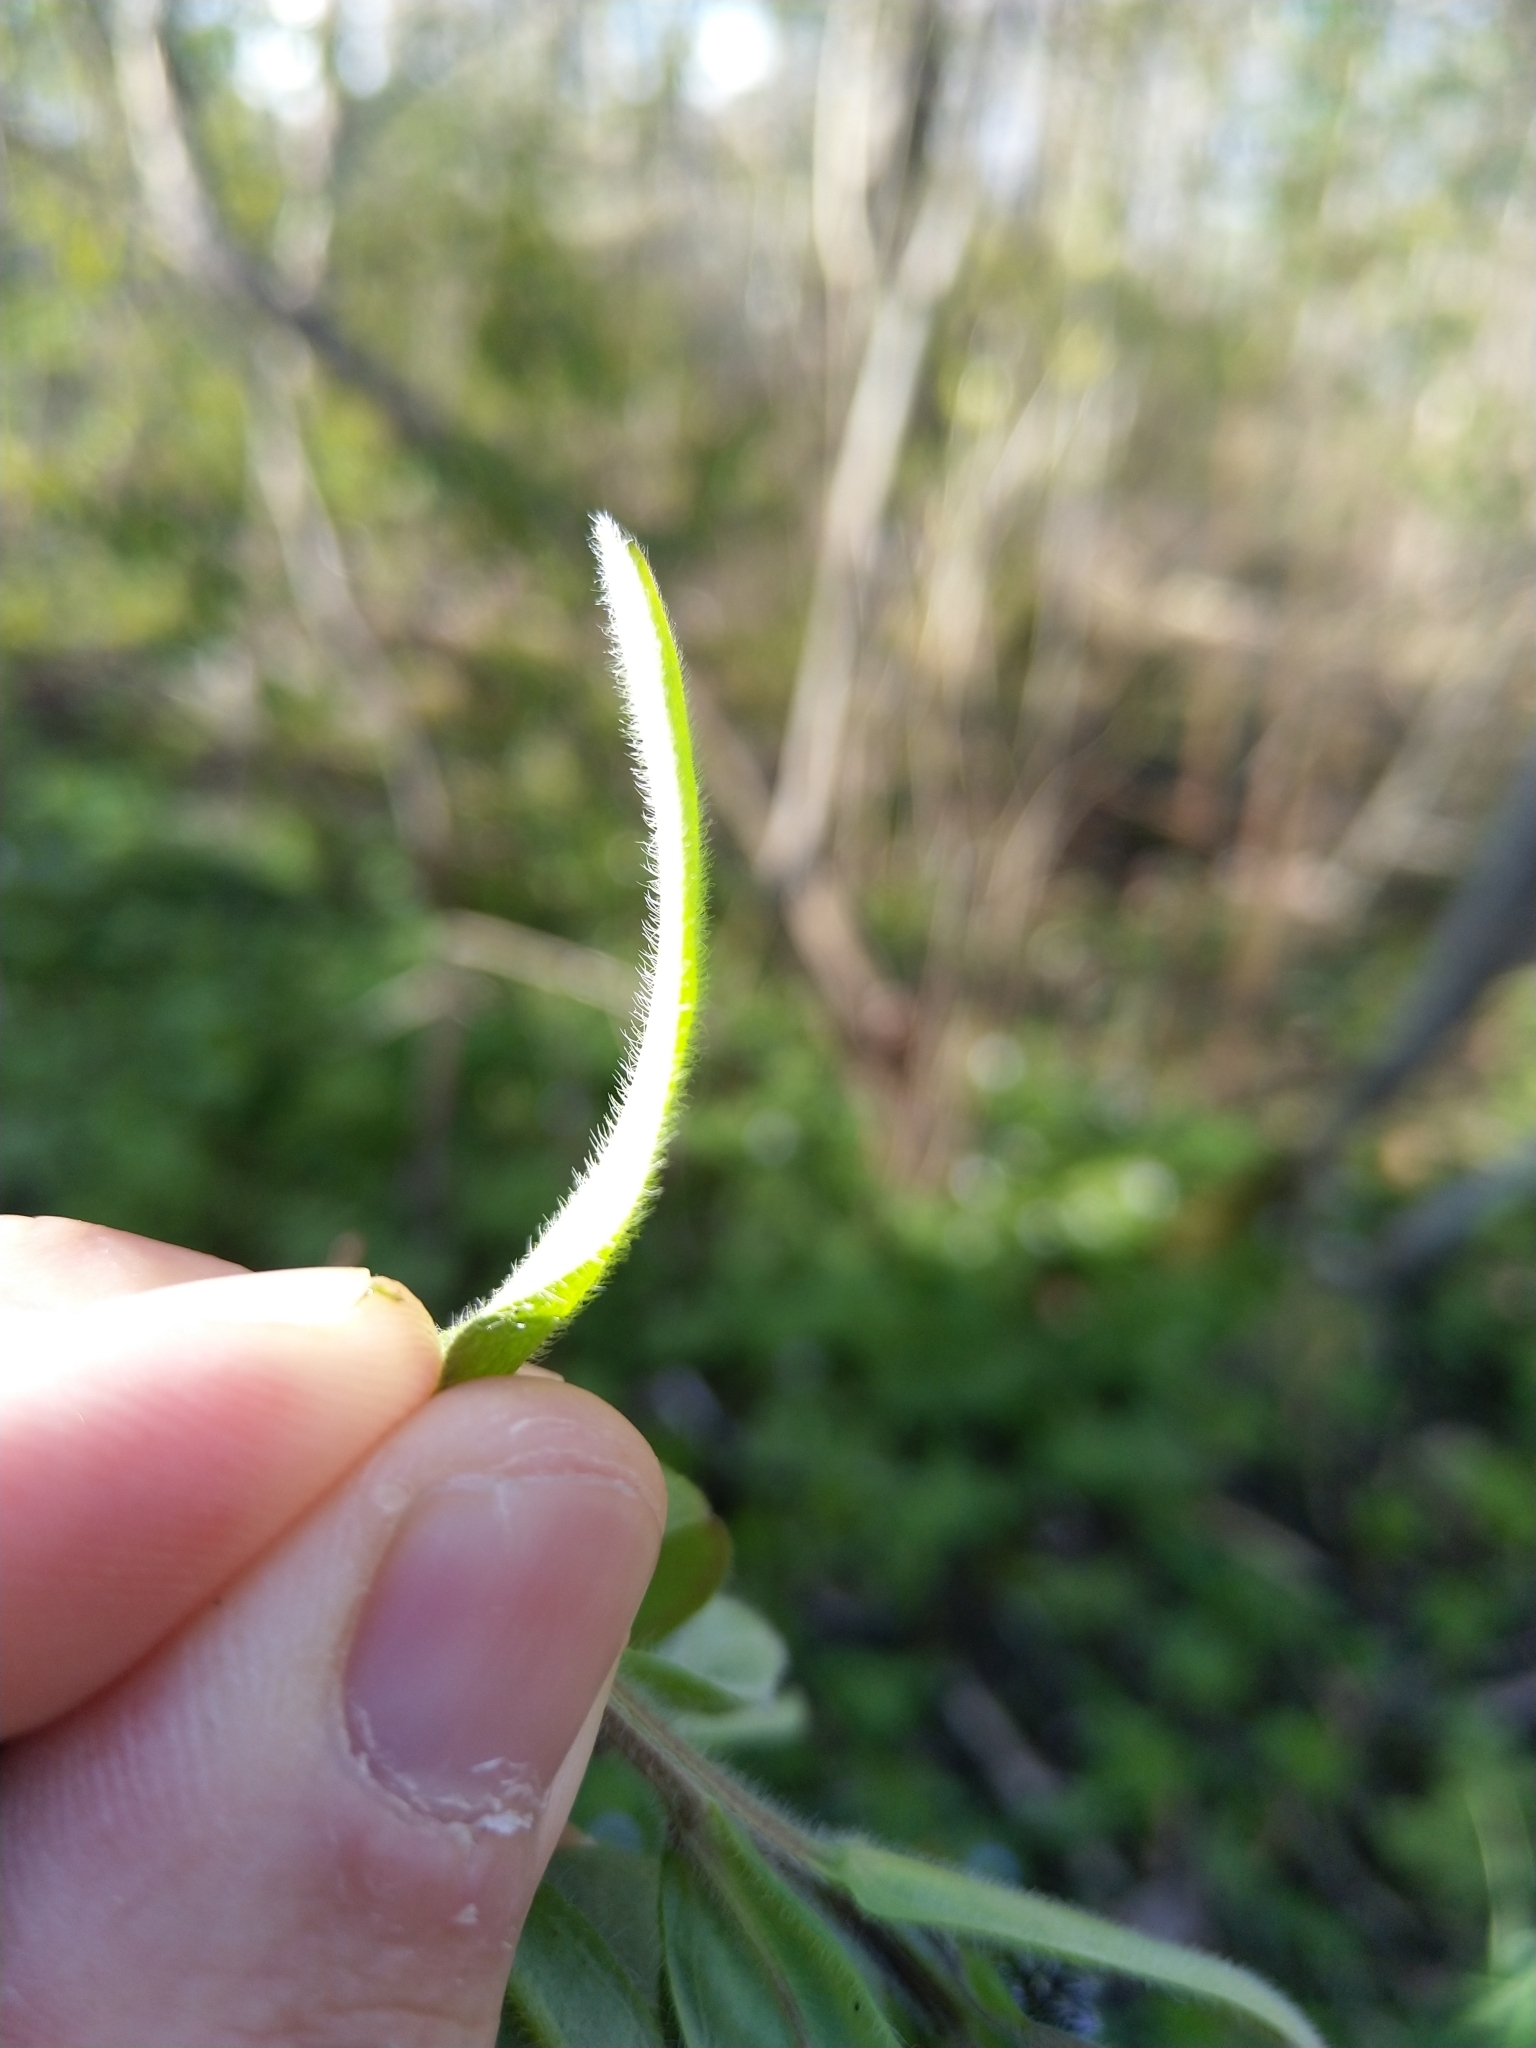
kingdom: Plantae
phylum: Tracheophyta
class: Magnoliopsida
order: Boraginales
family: Boraginaceae
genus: Myosotis
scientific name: Myosotis sylvatica
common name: Wood forget-me-not
